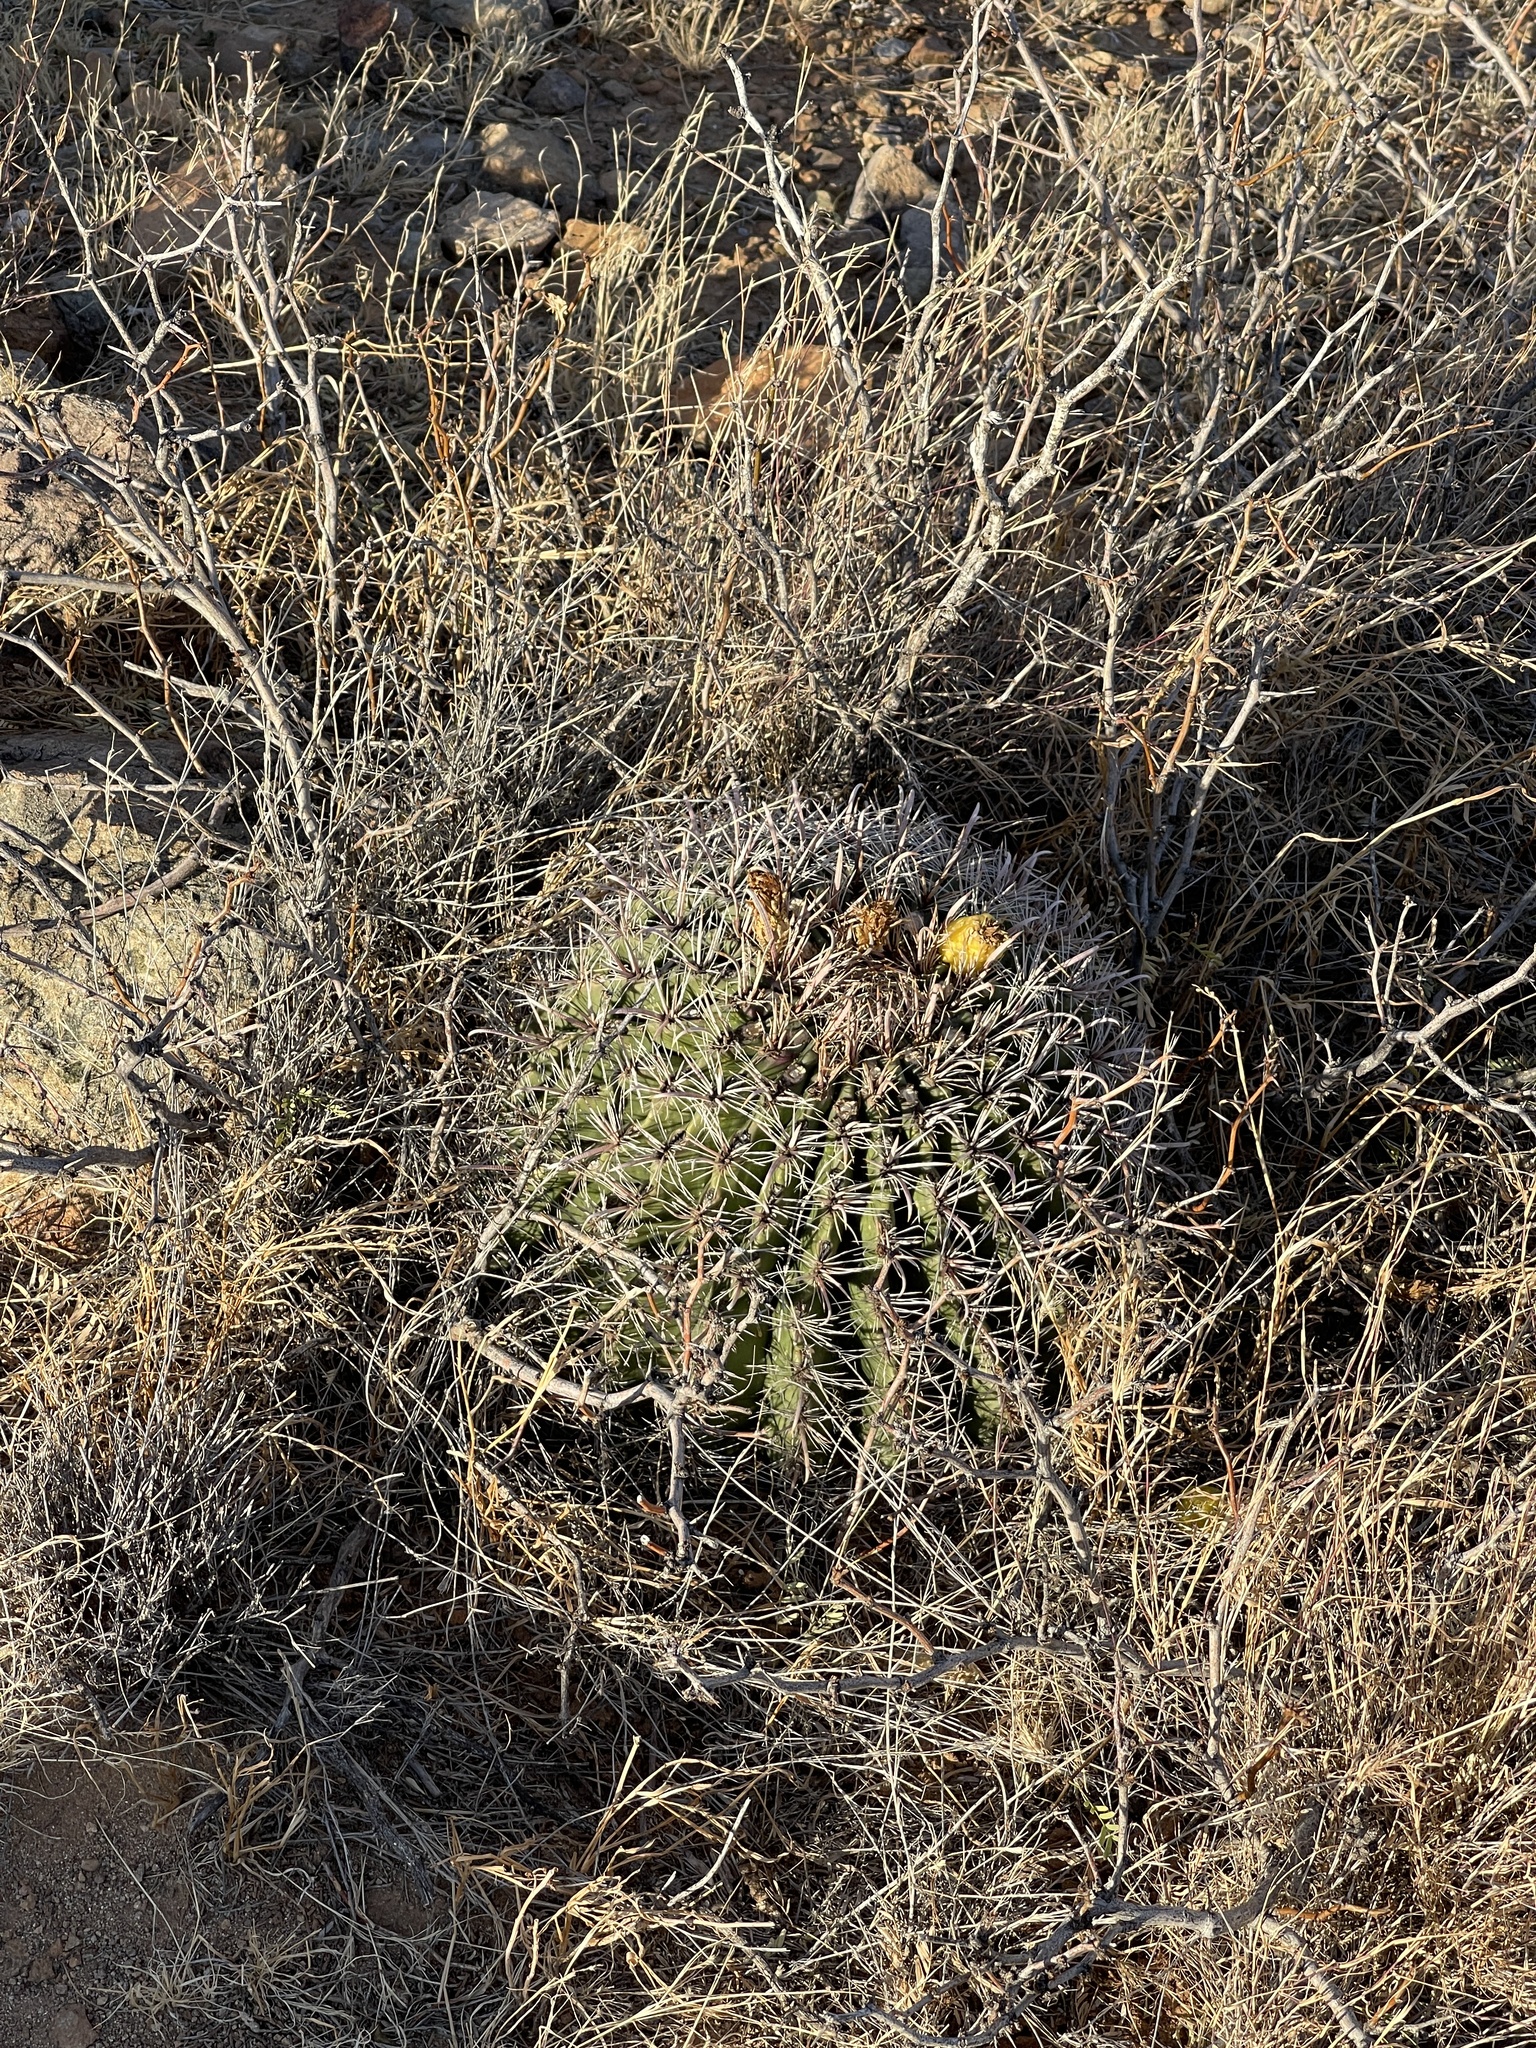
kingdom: Plantae
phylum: Tracheophyta
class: Magnoliopsida
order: Caryophyllales
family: Cactaceae
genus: Ferocactus
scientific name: Ferocactus wislizeni
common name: Candy barrel cactus
